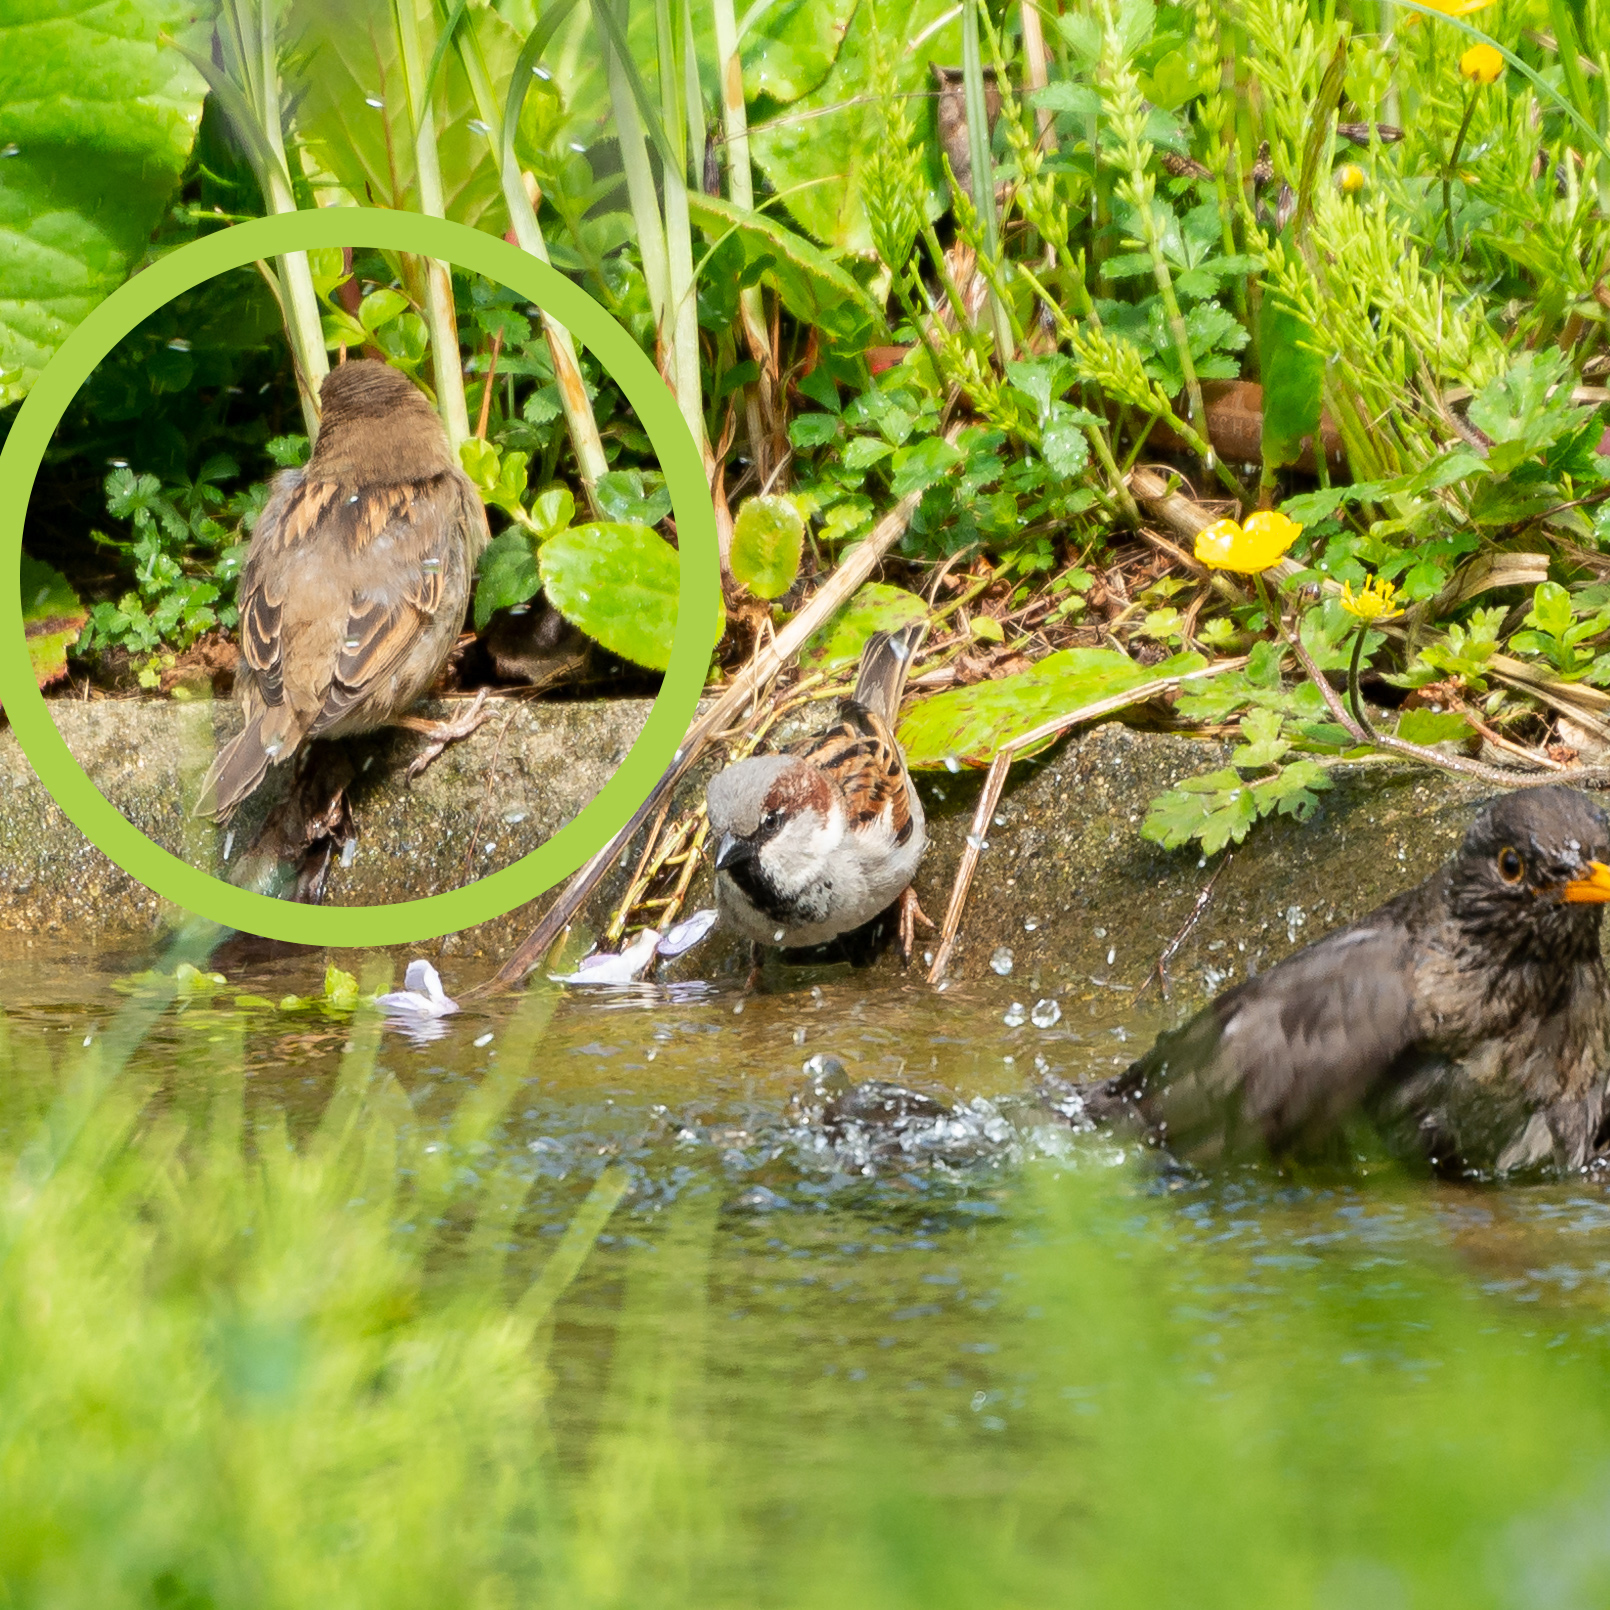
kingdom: Animalia
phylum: Chordata
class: Aves
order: Passeriformes
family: Passeridae
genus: Passer
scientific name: Passer domesticus
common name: House sparrow
